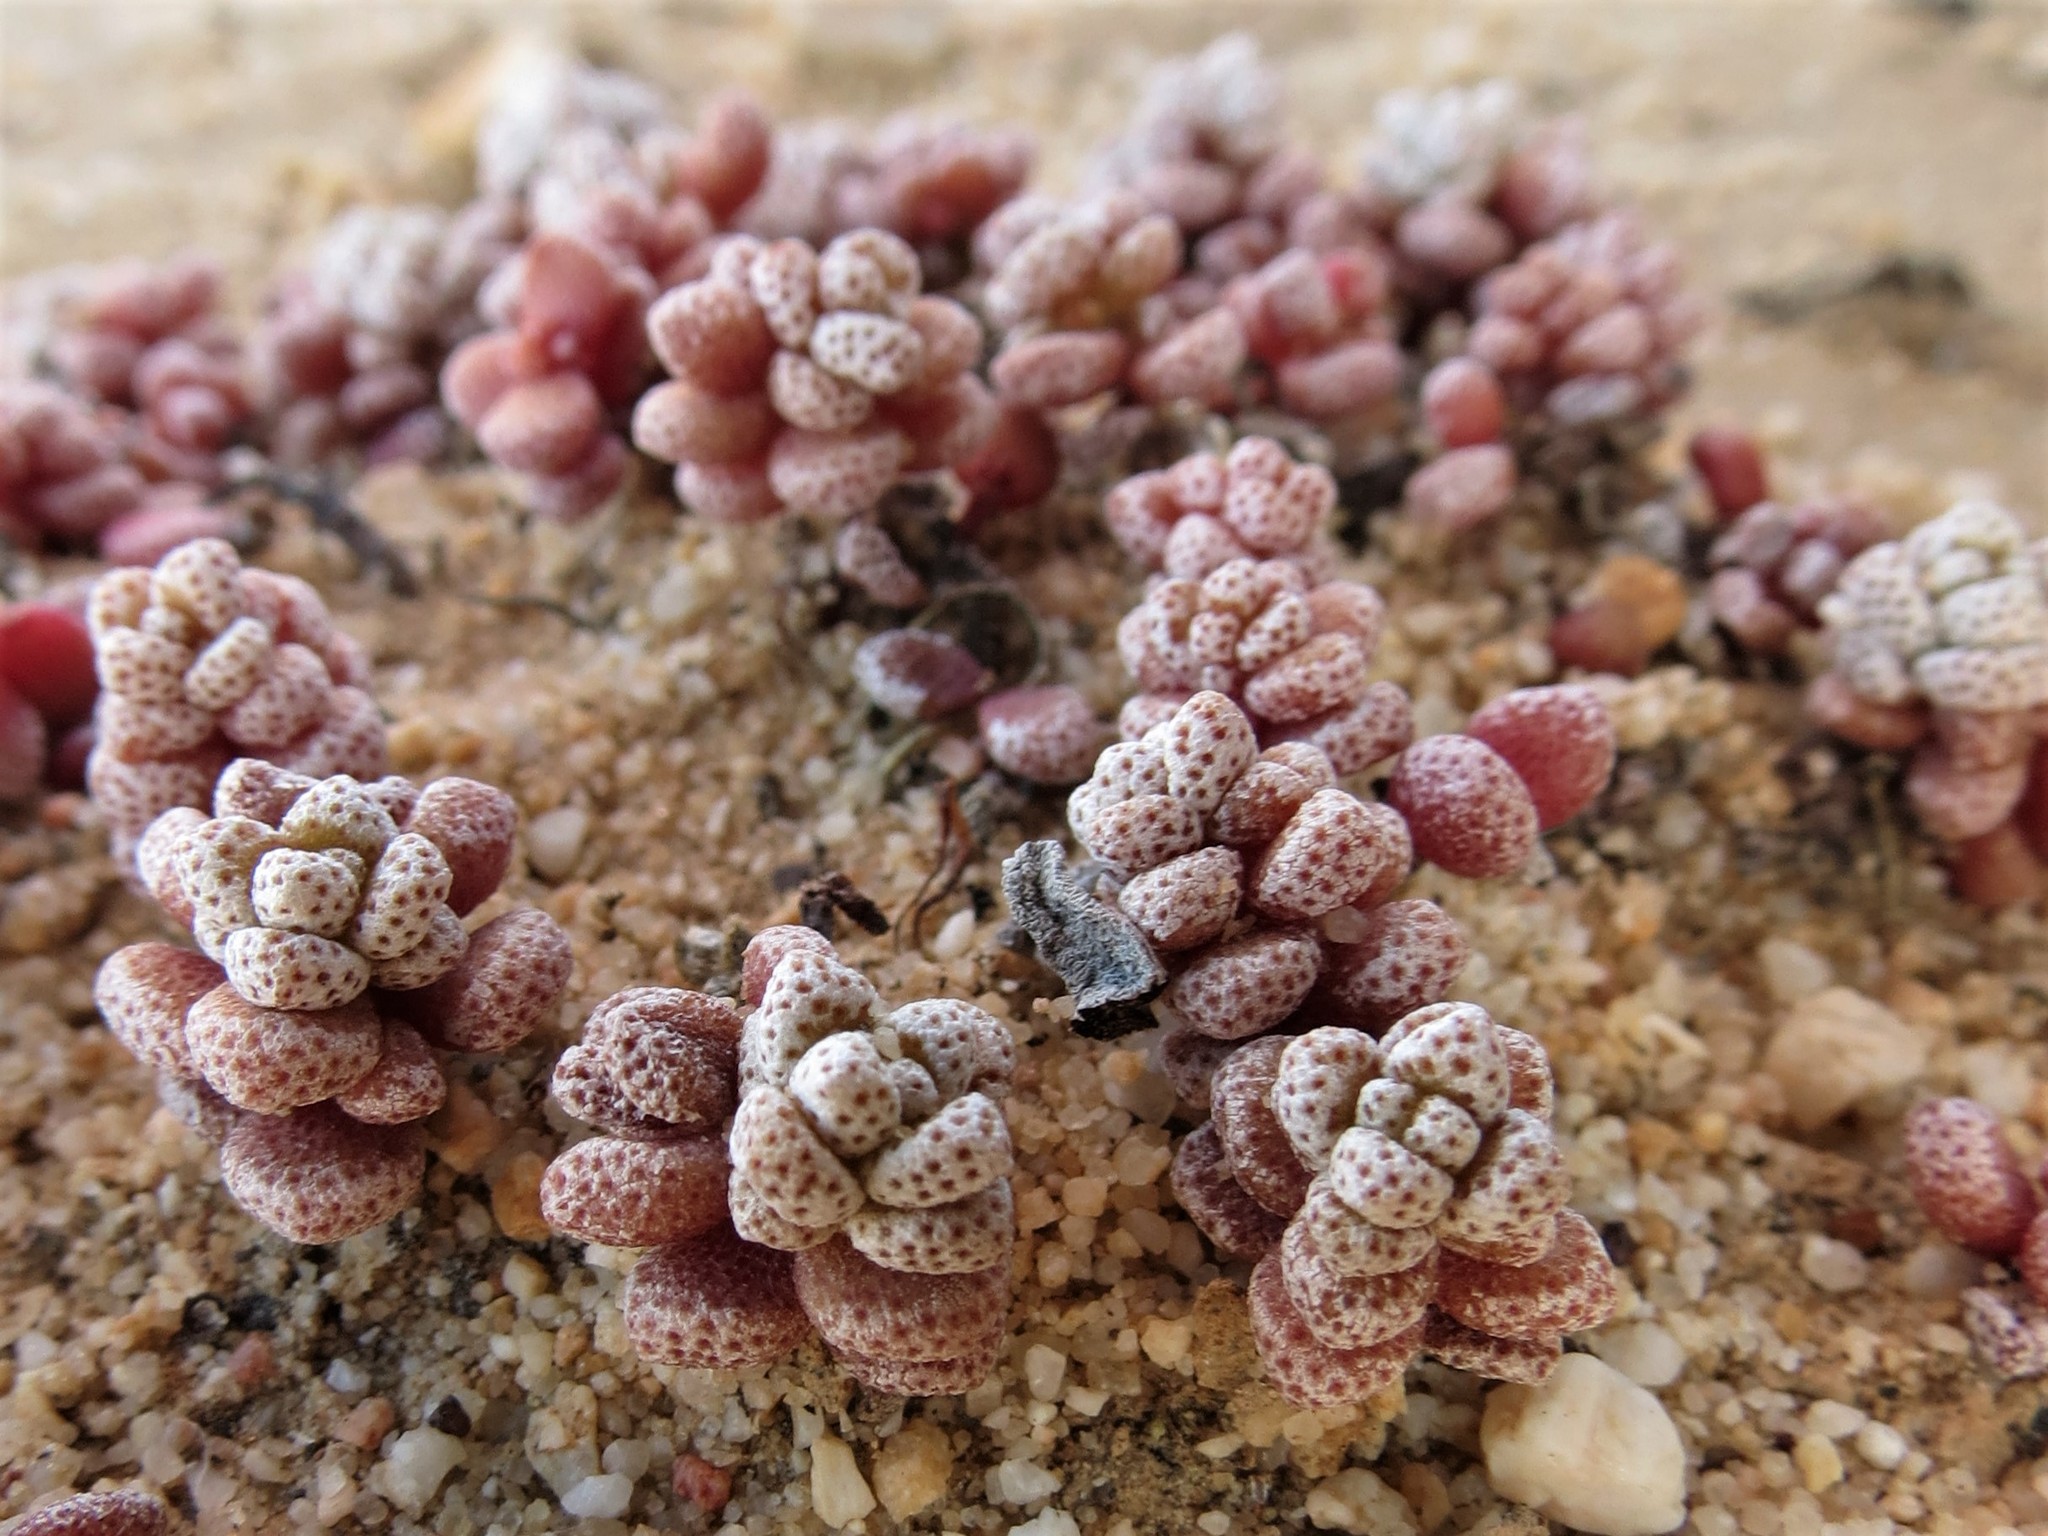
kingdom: Plantae
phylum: Tracheophyta
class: Magnoliopsida
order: Saxifragales
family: Crassulaceae
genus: Crassula
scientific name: Crassula corallina
